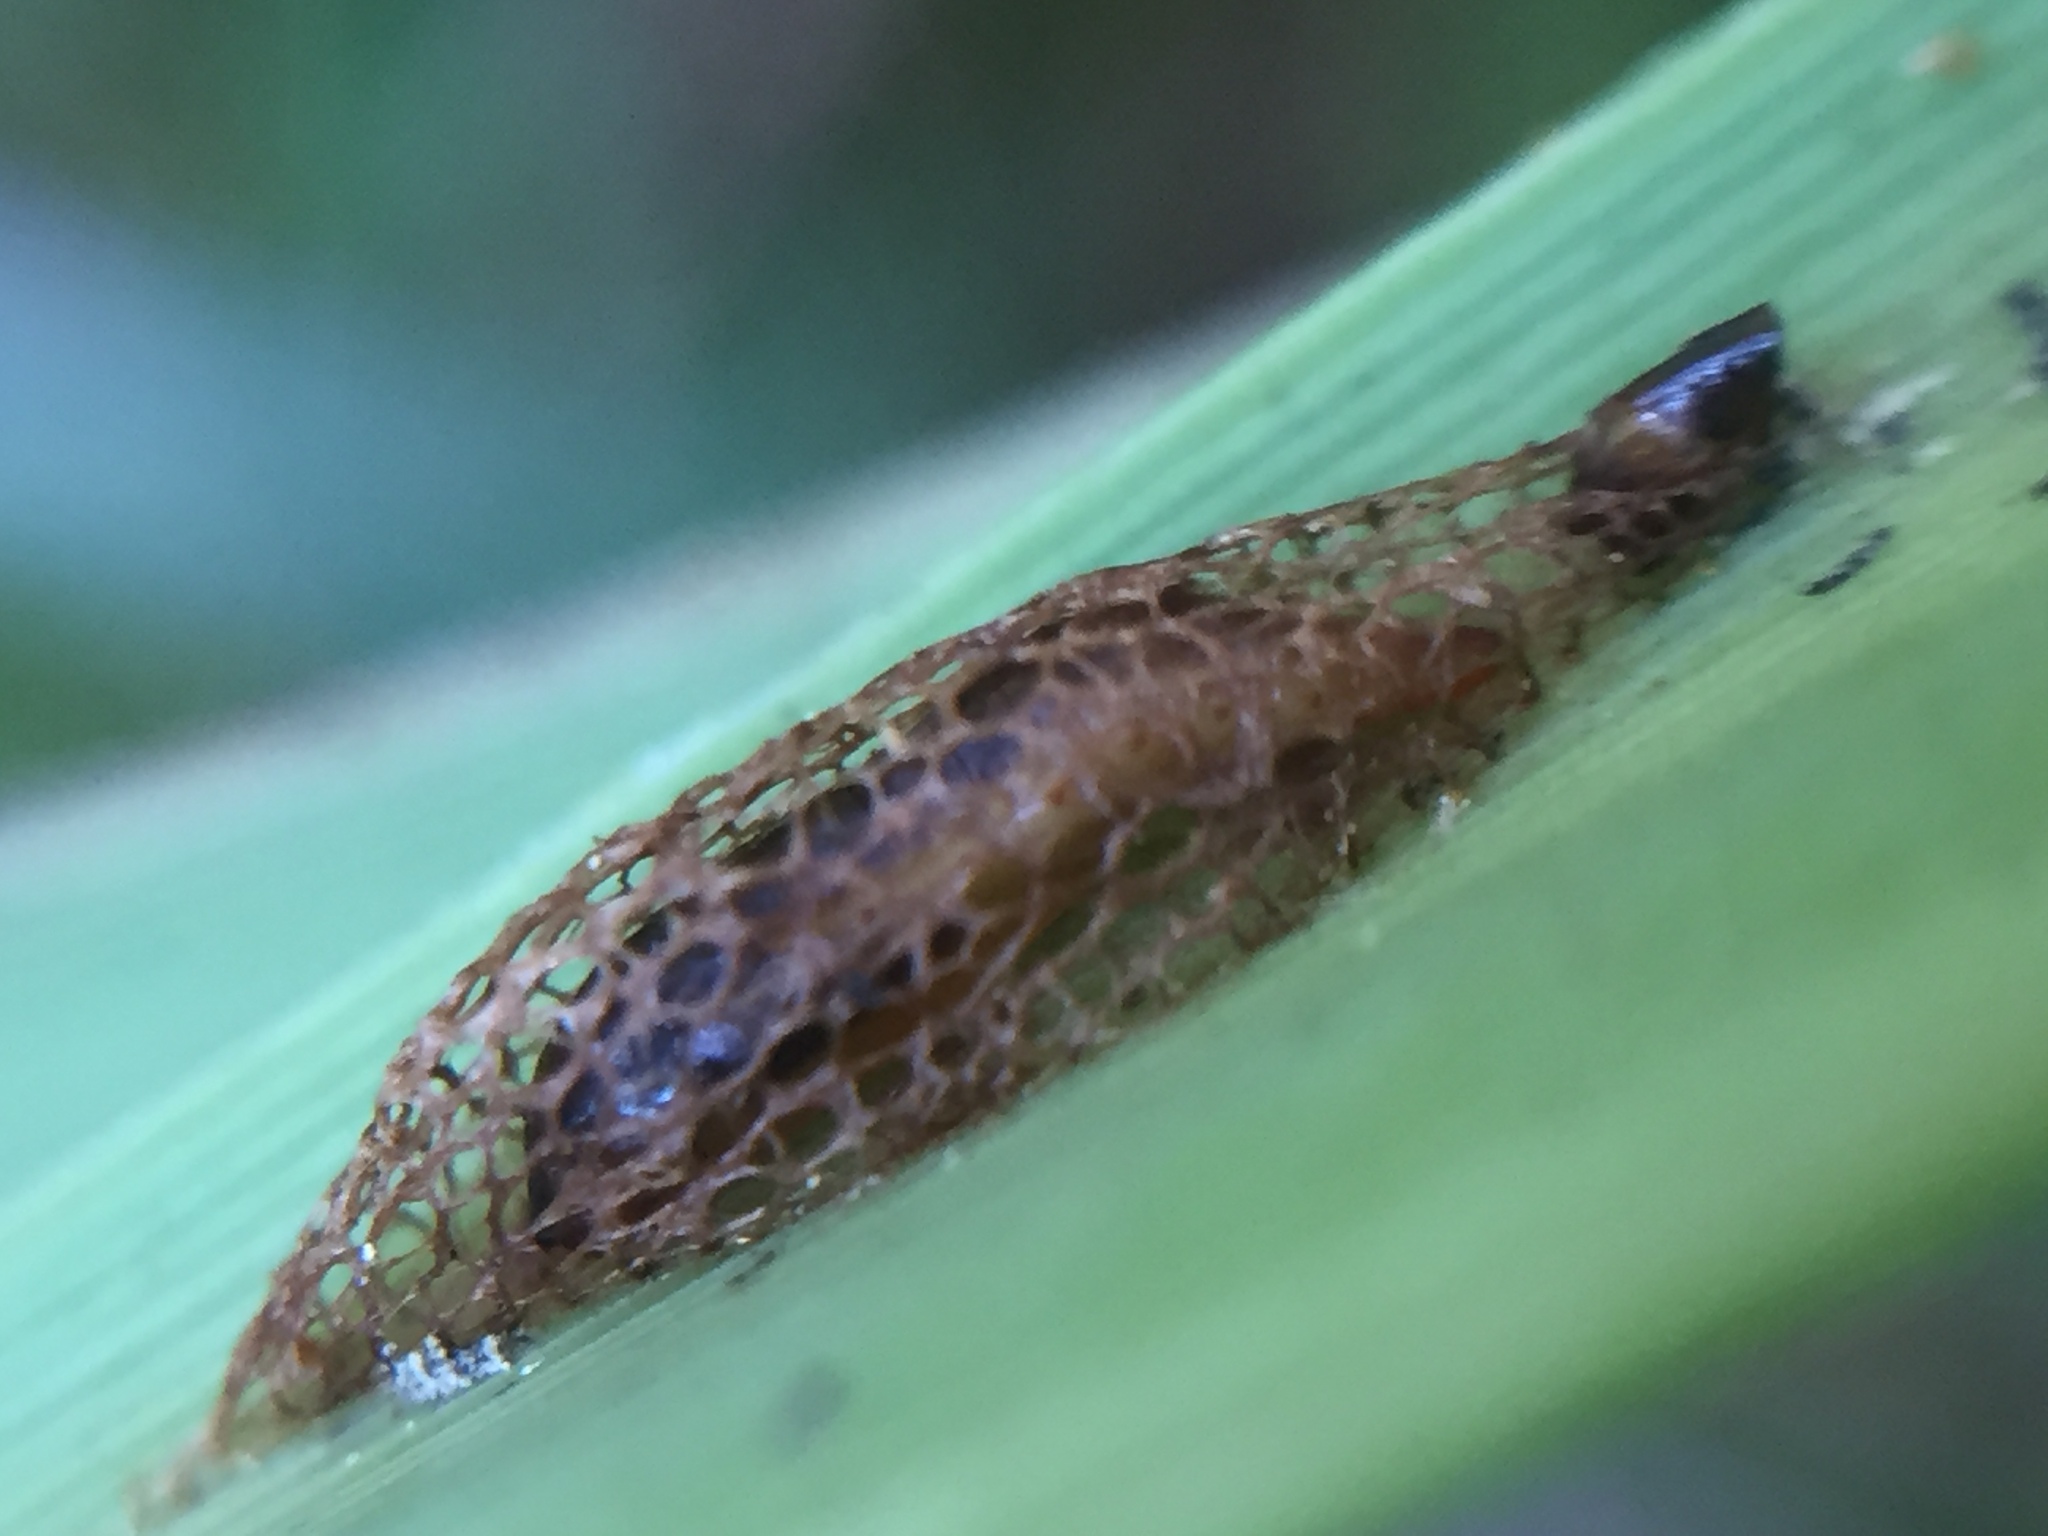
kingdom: Animalia
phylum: Arthropoda
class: Insecta
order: Lepidoptera
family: Glyphipterigidae
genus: Glyphipterix
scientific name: Glyphipterix dichorda
